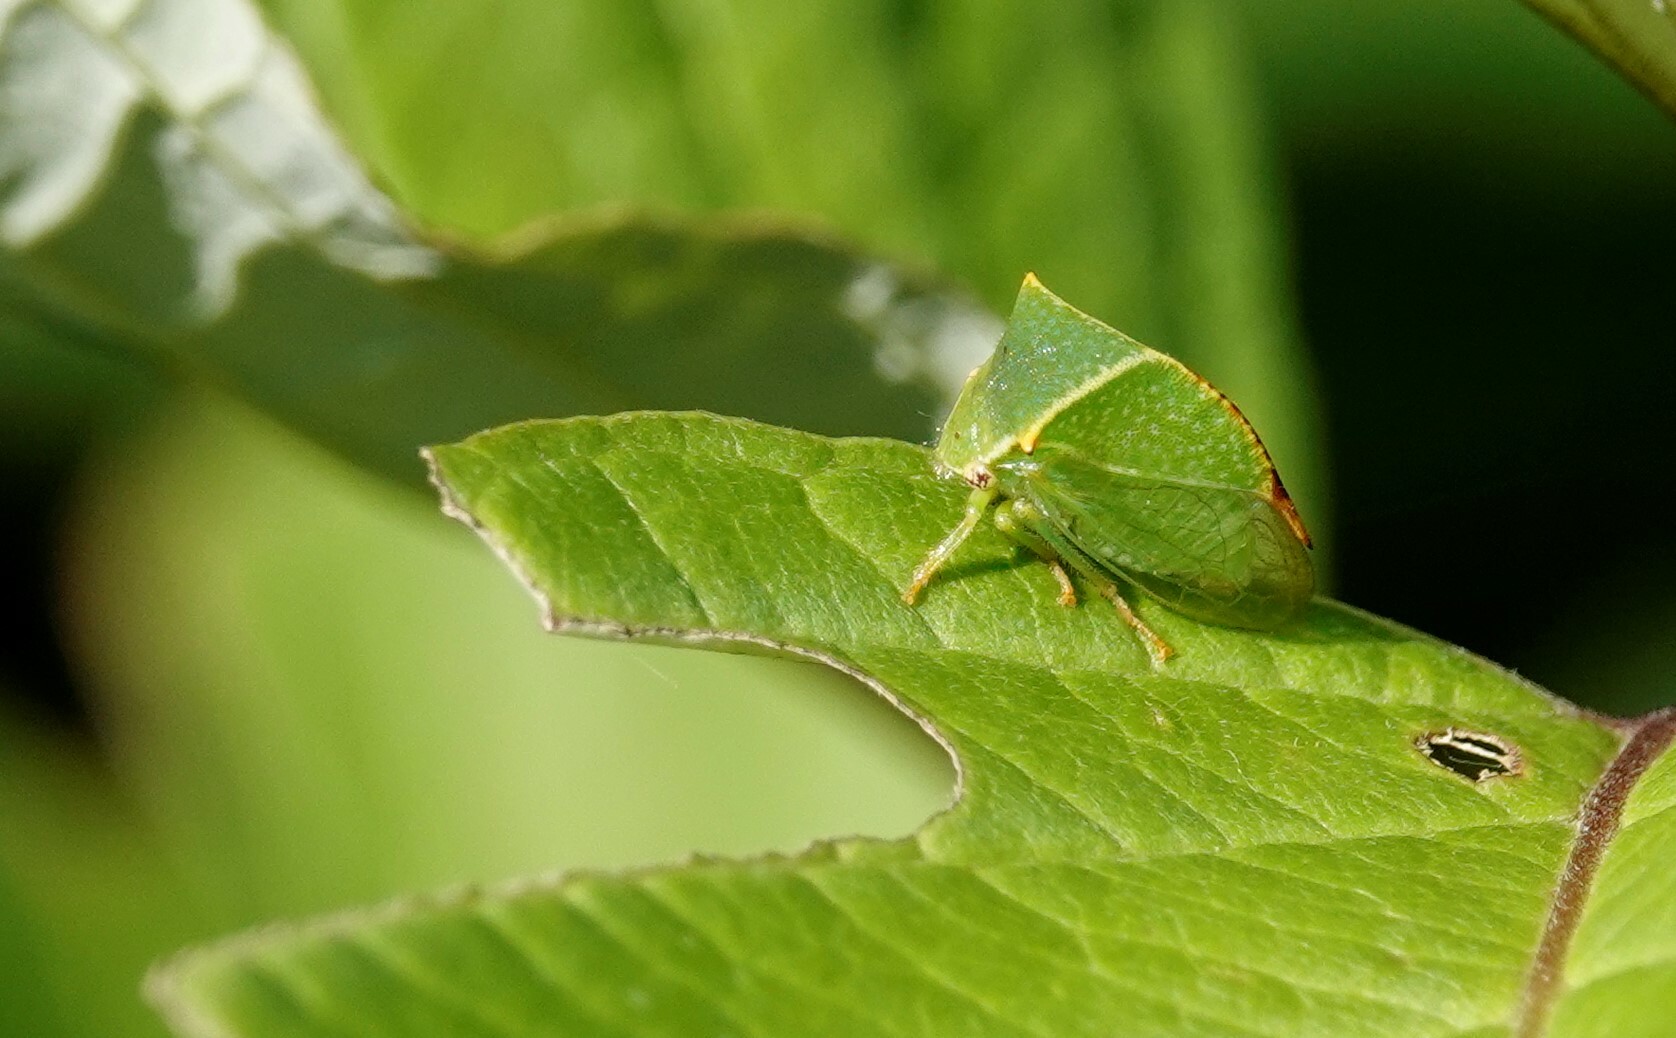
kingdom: Animalia
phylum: Arthropoda
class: Insecta
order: Hemiptera
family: Membracidae
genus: Stictocephala
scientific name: Stictocephala bisonia
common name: American buffalo treehopper
